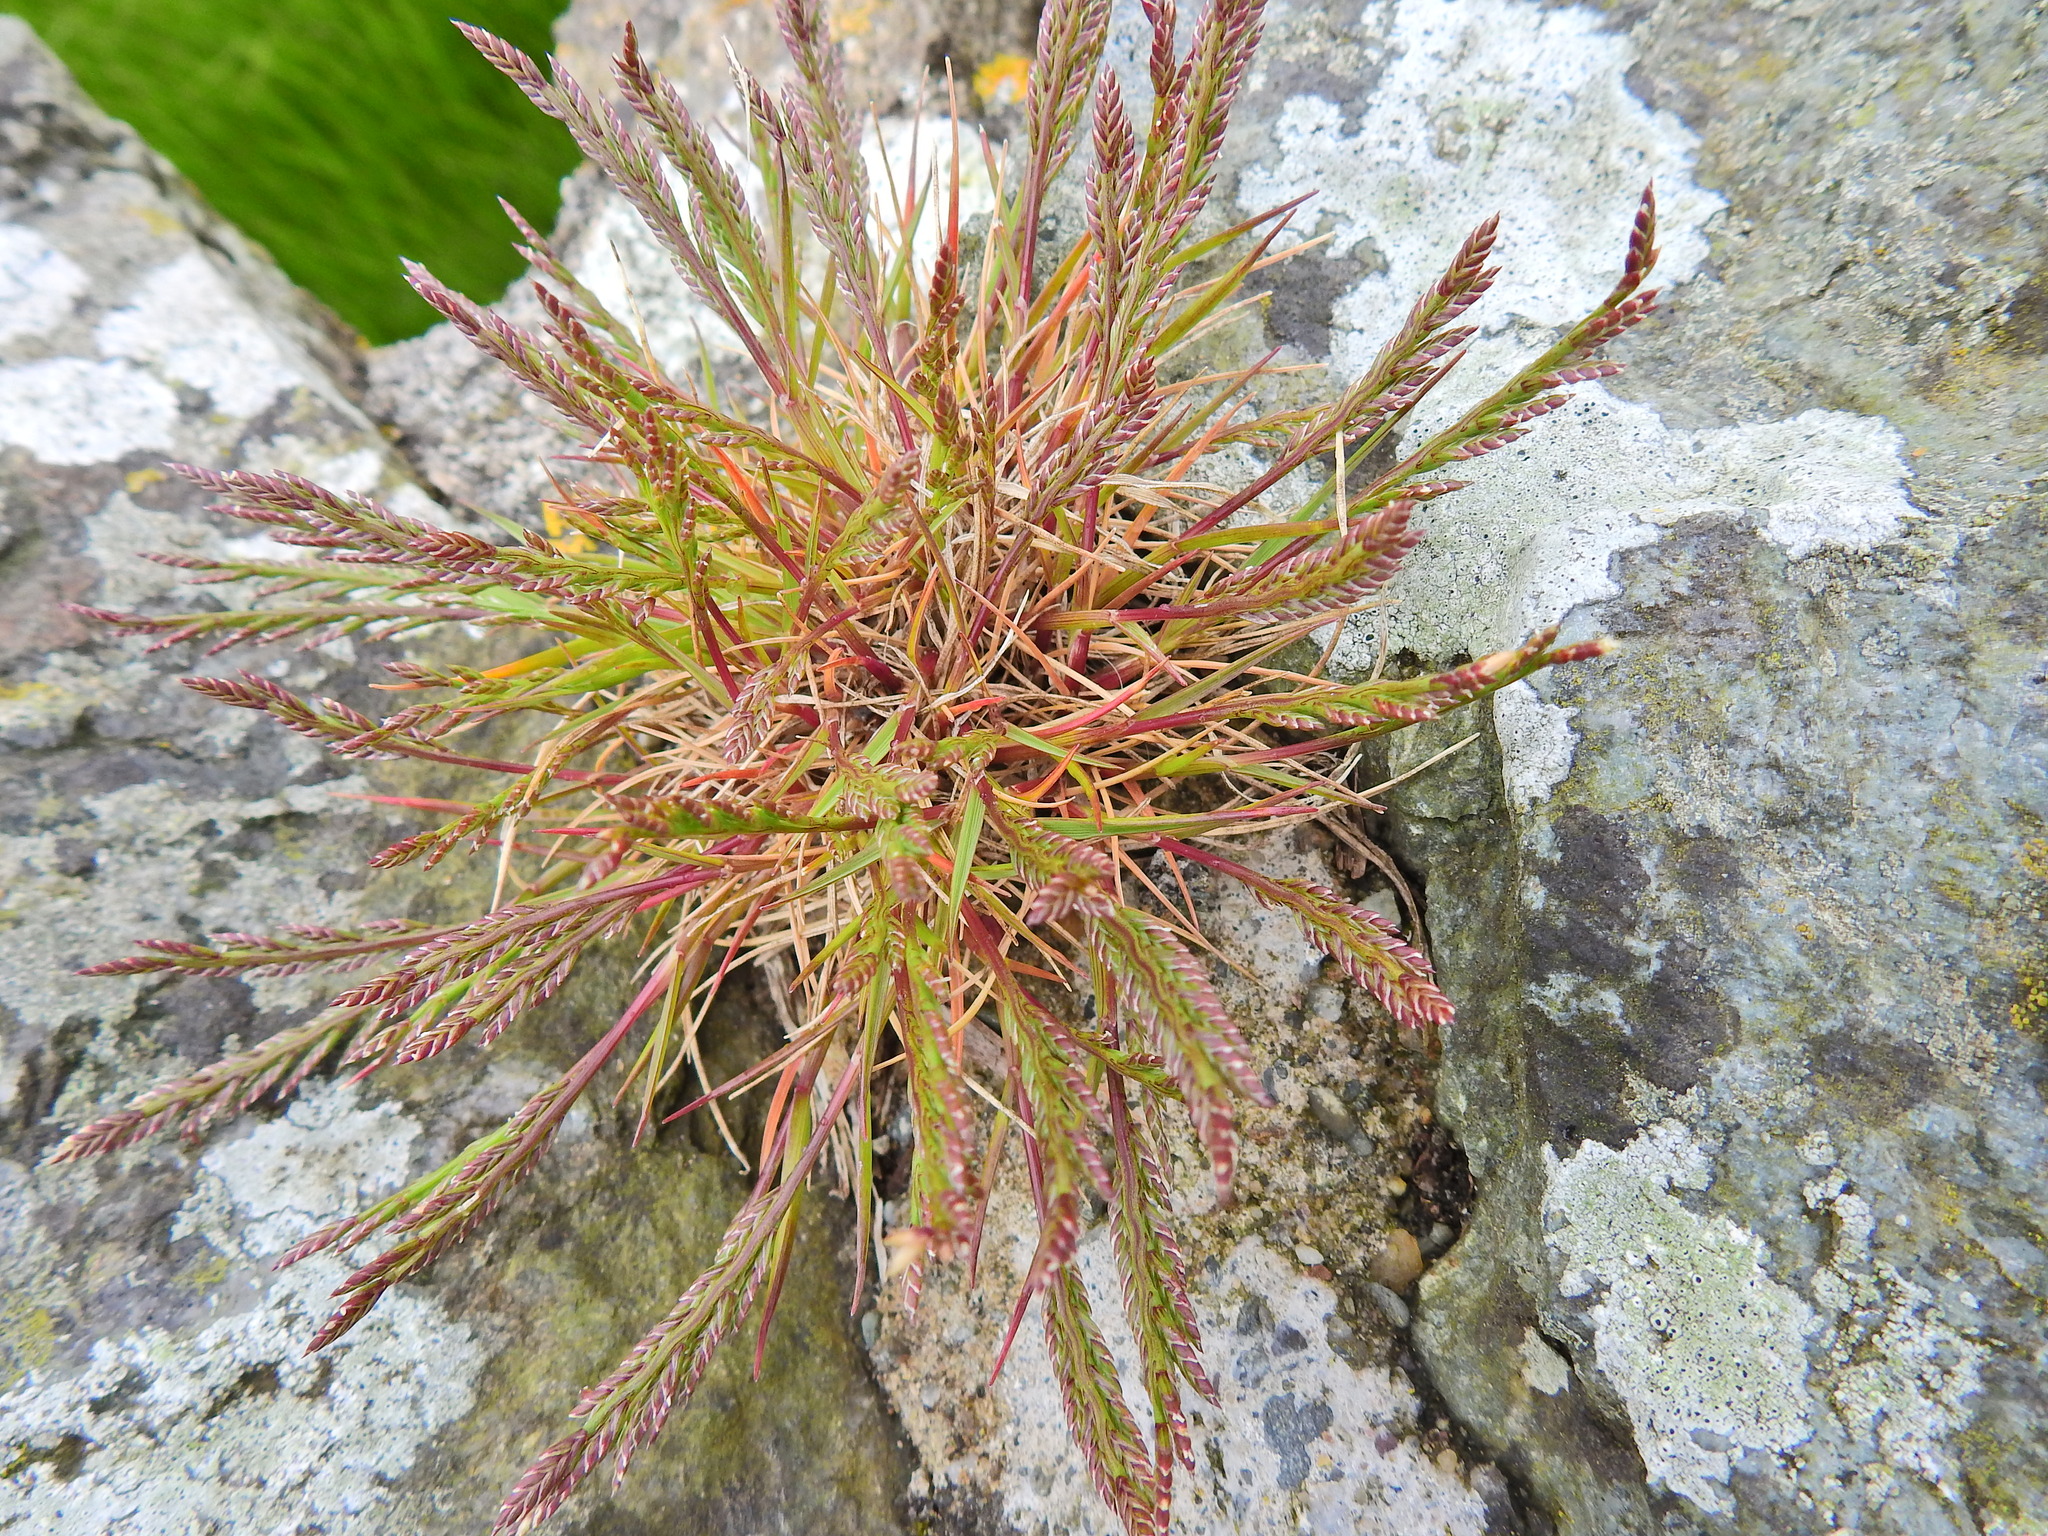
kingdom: Plantae
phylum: Tracheophyta
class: Liliopsida
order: Poales
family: Poaceae
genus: Catapodium
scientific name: Catapodium marinum
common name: Sea fern-grass
